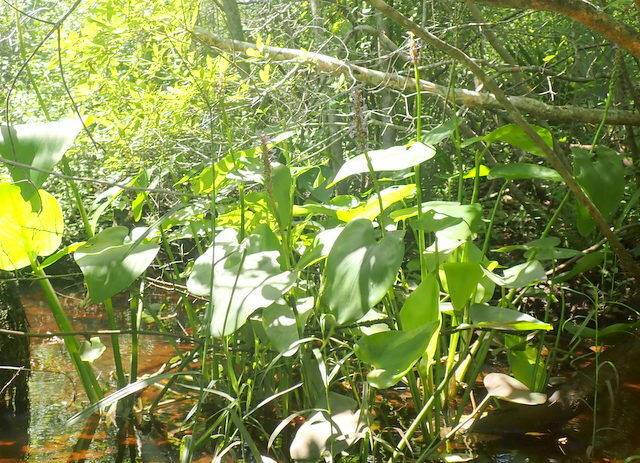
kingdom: Plantae
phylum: Tracheophyta
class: Liliopsida
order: Commelinales
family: Pontederiaceae
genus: Pontederia
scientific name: Pontederia cordata
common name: Pickerelweed
